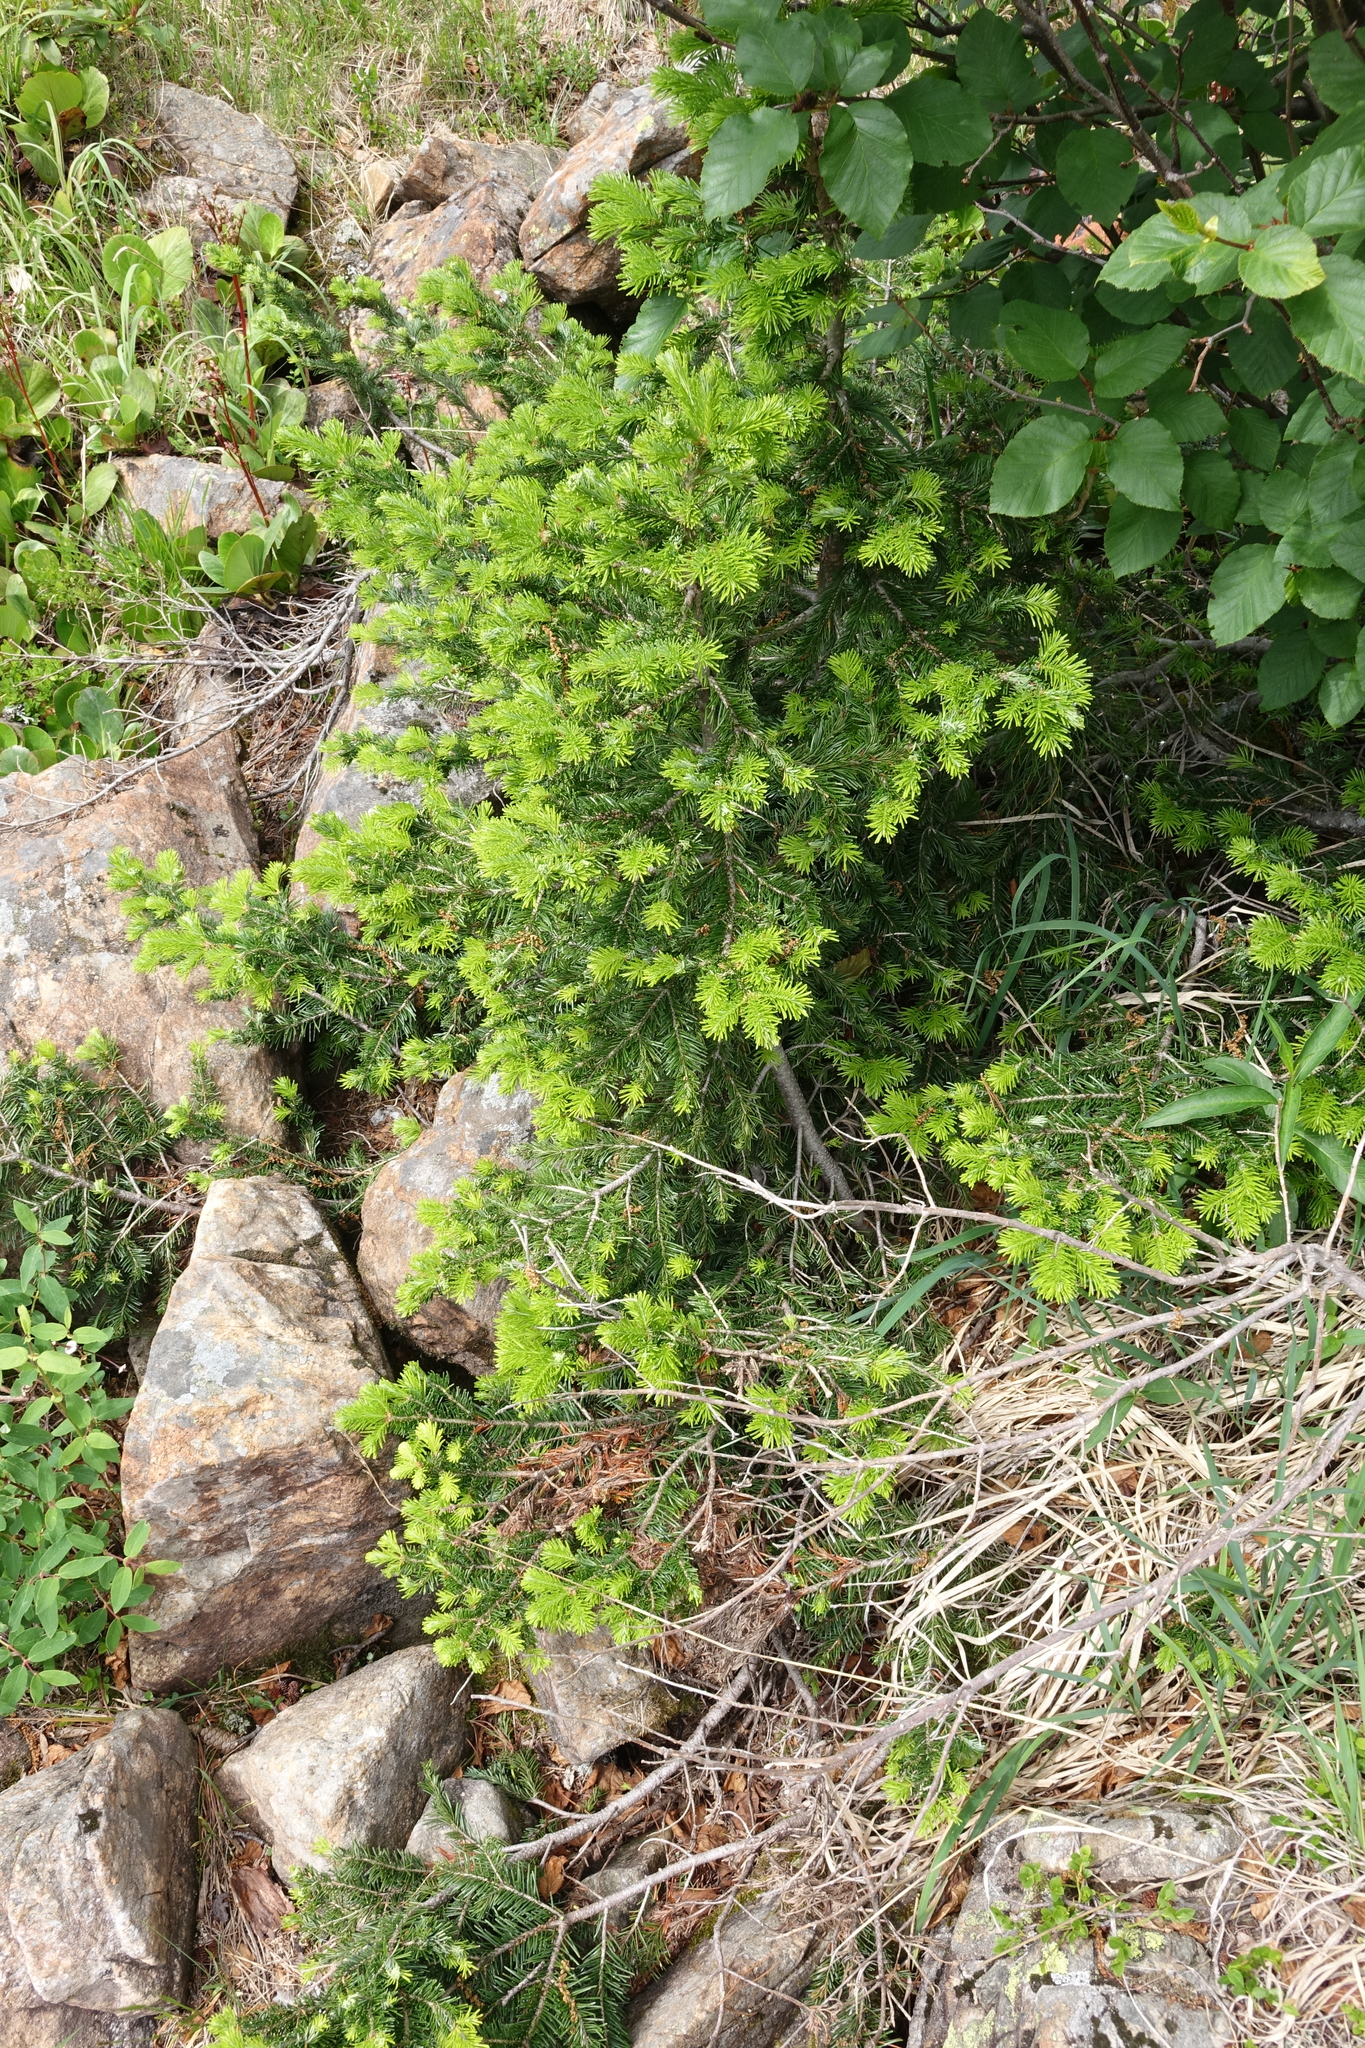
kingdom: Plantae
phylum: Tracheophyta
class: Pinopsida
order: Pinales
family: Pinaceae
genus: Abies
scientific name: Abies sibirica
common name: Siberian fir
